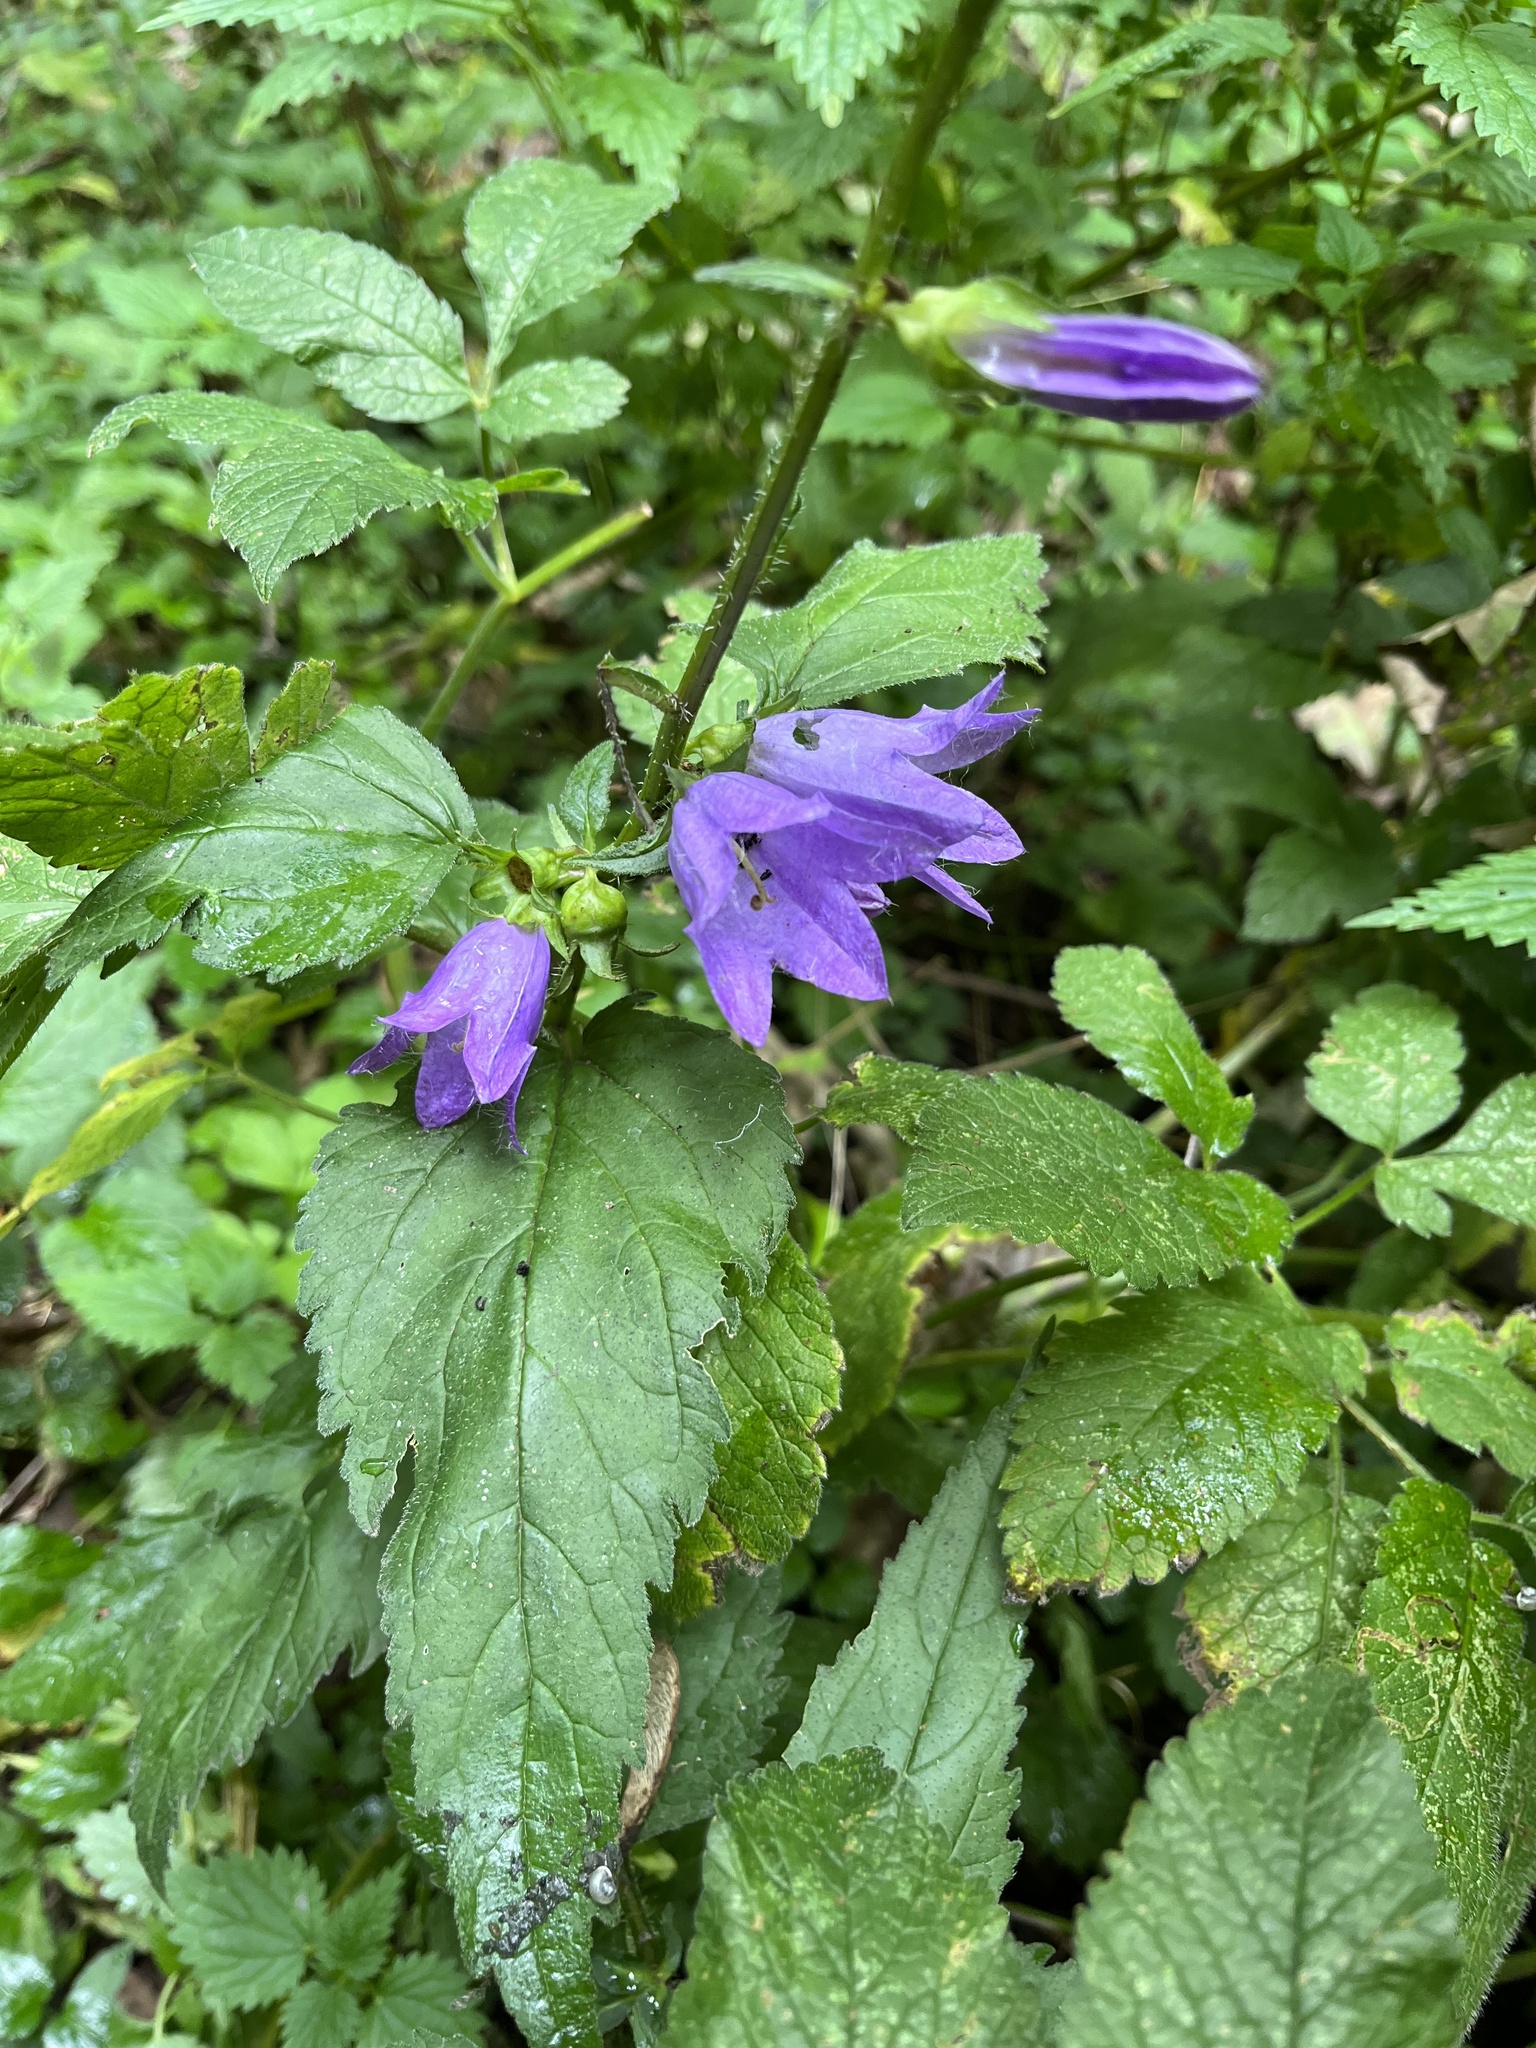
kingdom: Plantae
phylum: Tracheophyta
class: Magnoliopsida
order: Asterales
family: Campanulaceae
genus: Campanula
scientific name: Campanula trachelium
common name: Nettle-leaved bellflower
